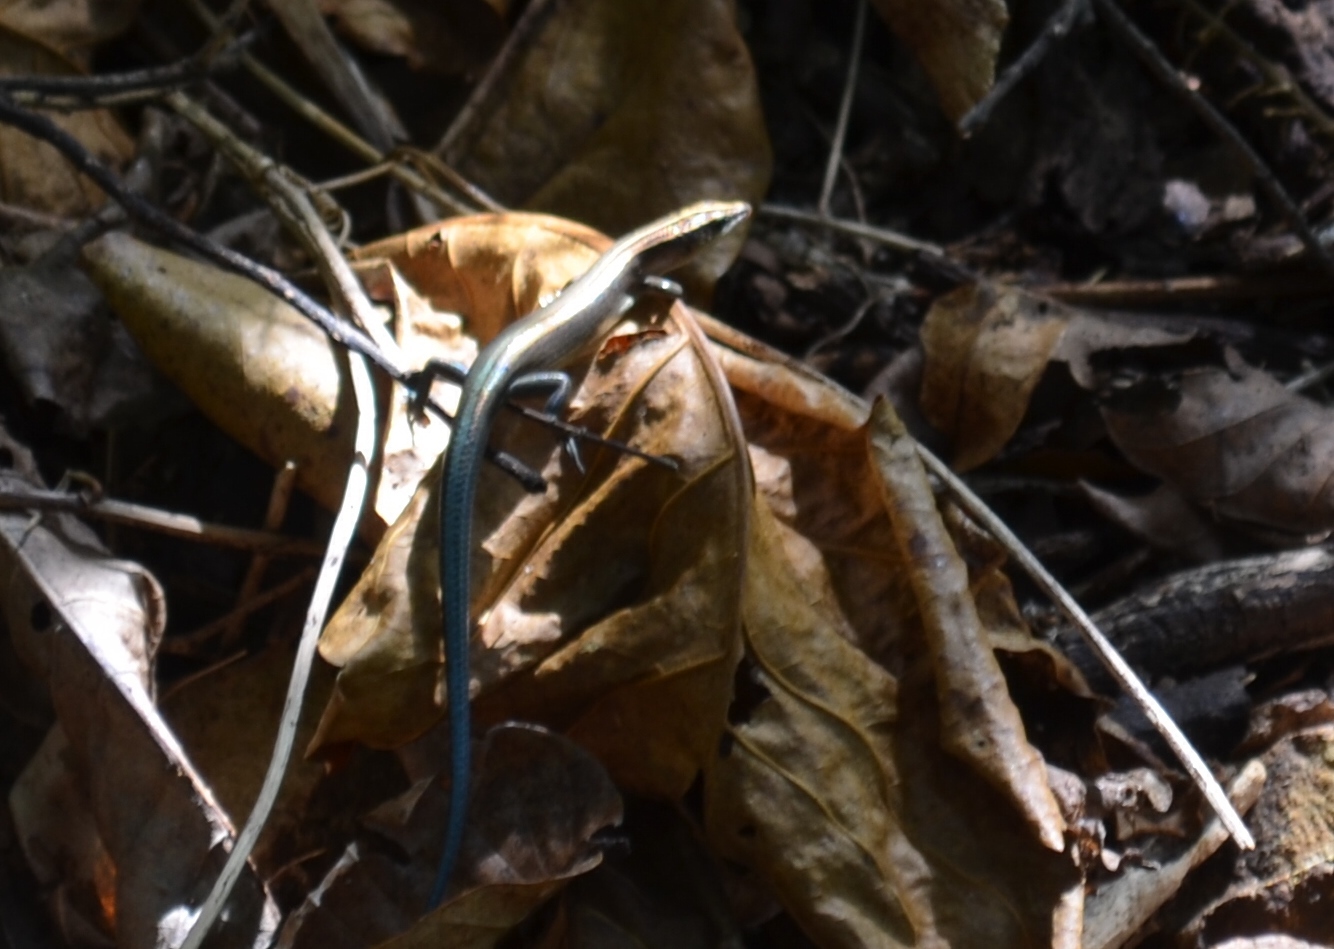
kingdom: Animalia
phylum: Chordata
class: Squamata
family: Scincidae
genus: Emoia
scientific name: Emoia impar
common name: Azure-tailed skink
